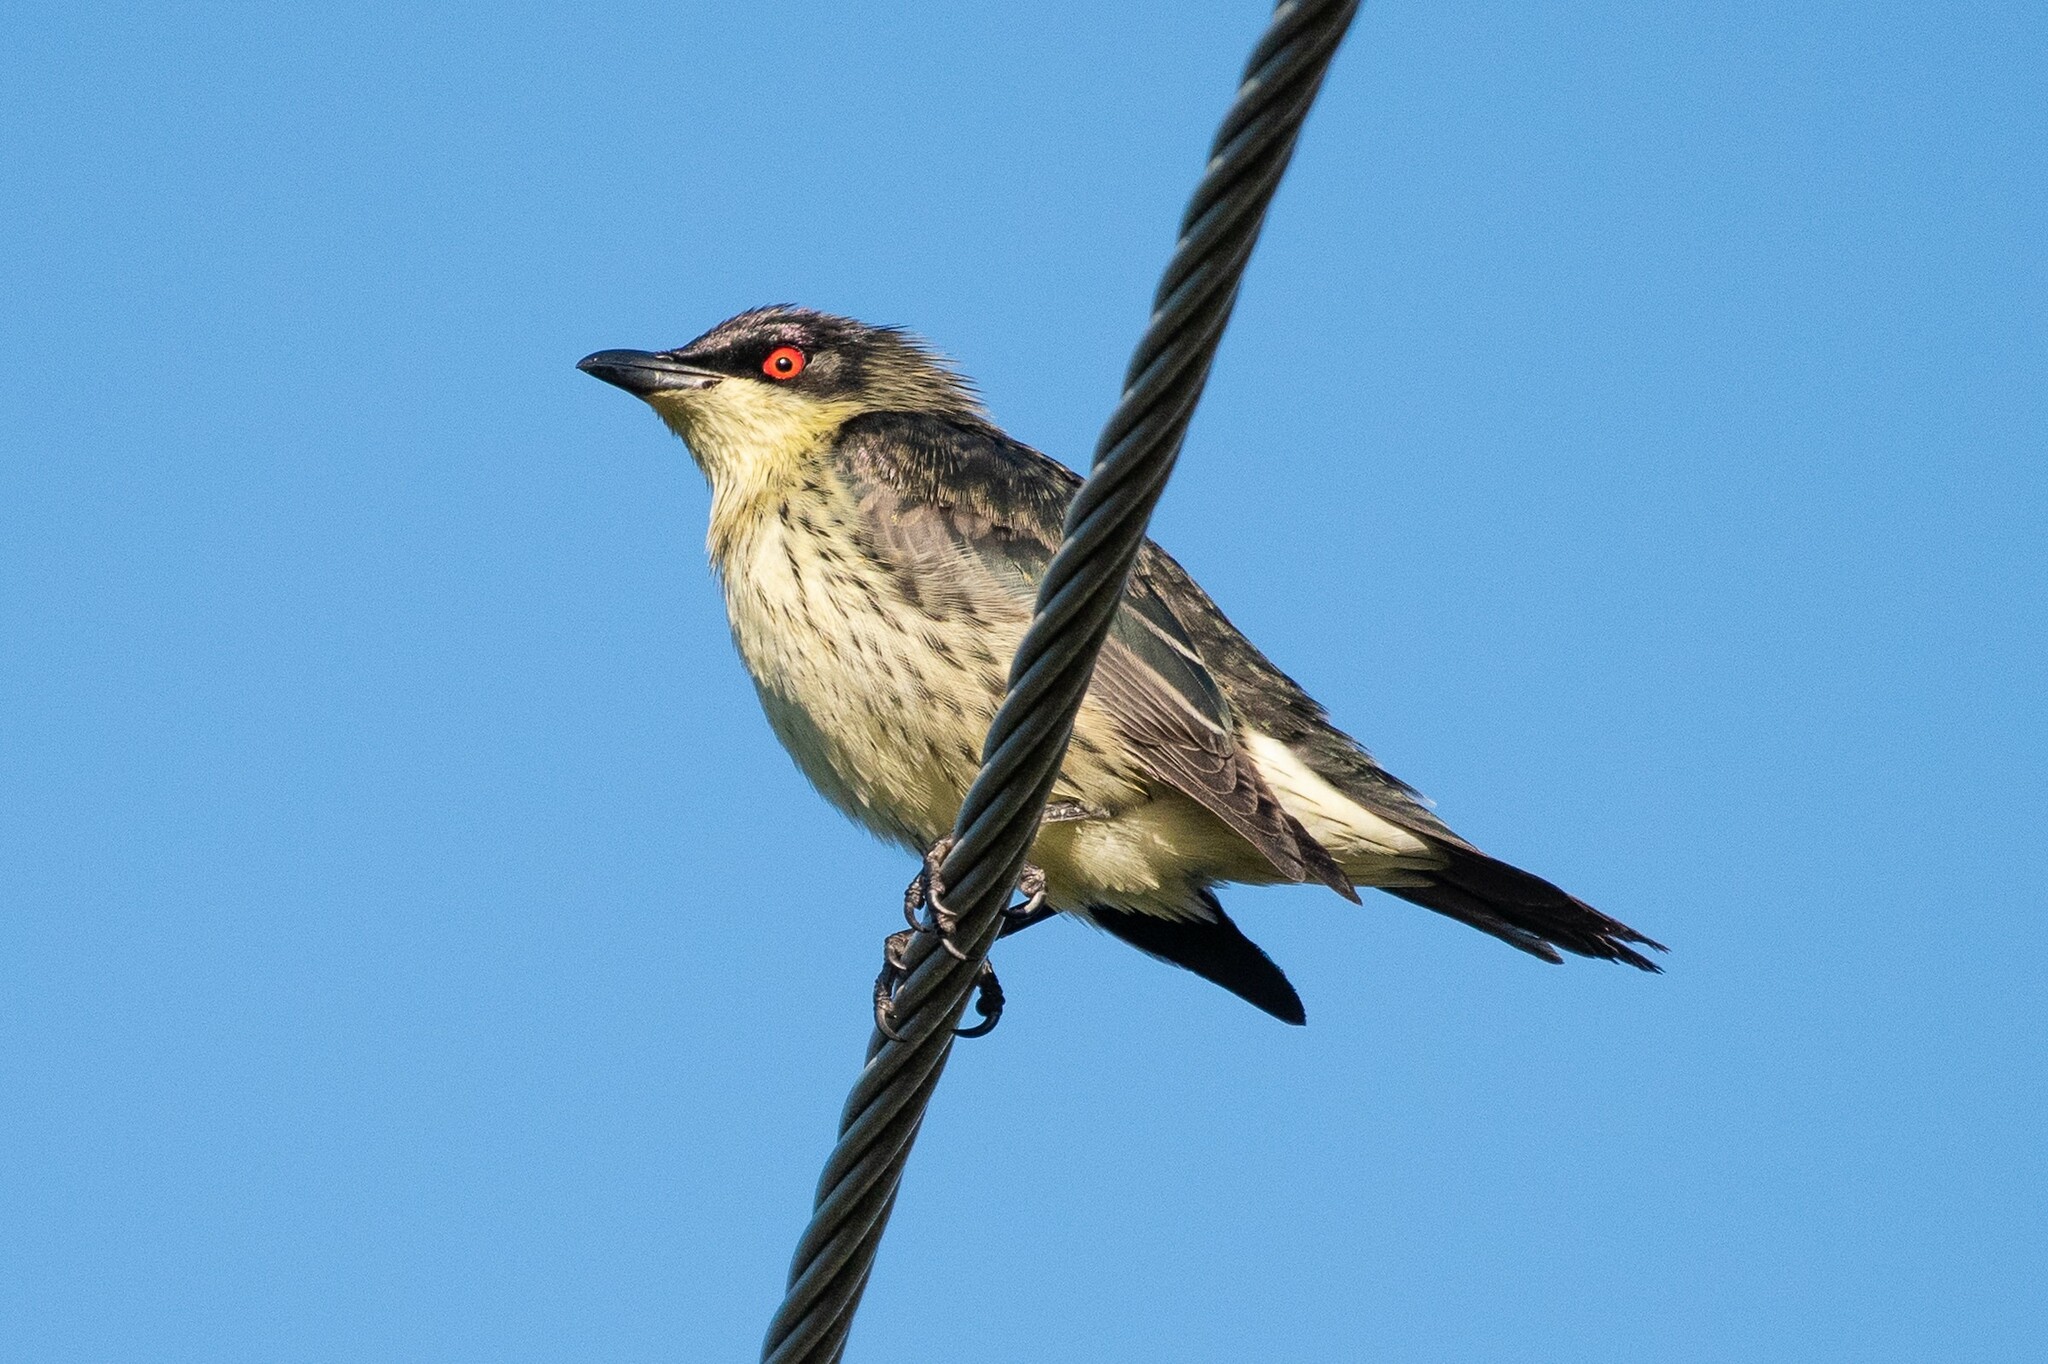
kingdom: Animalia
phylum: Chordata
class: Aves
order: Passeriformes
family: Sturnidae
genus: Aplonis
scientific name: Aplonis metallica
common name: Metallic starling
